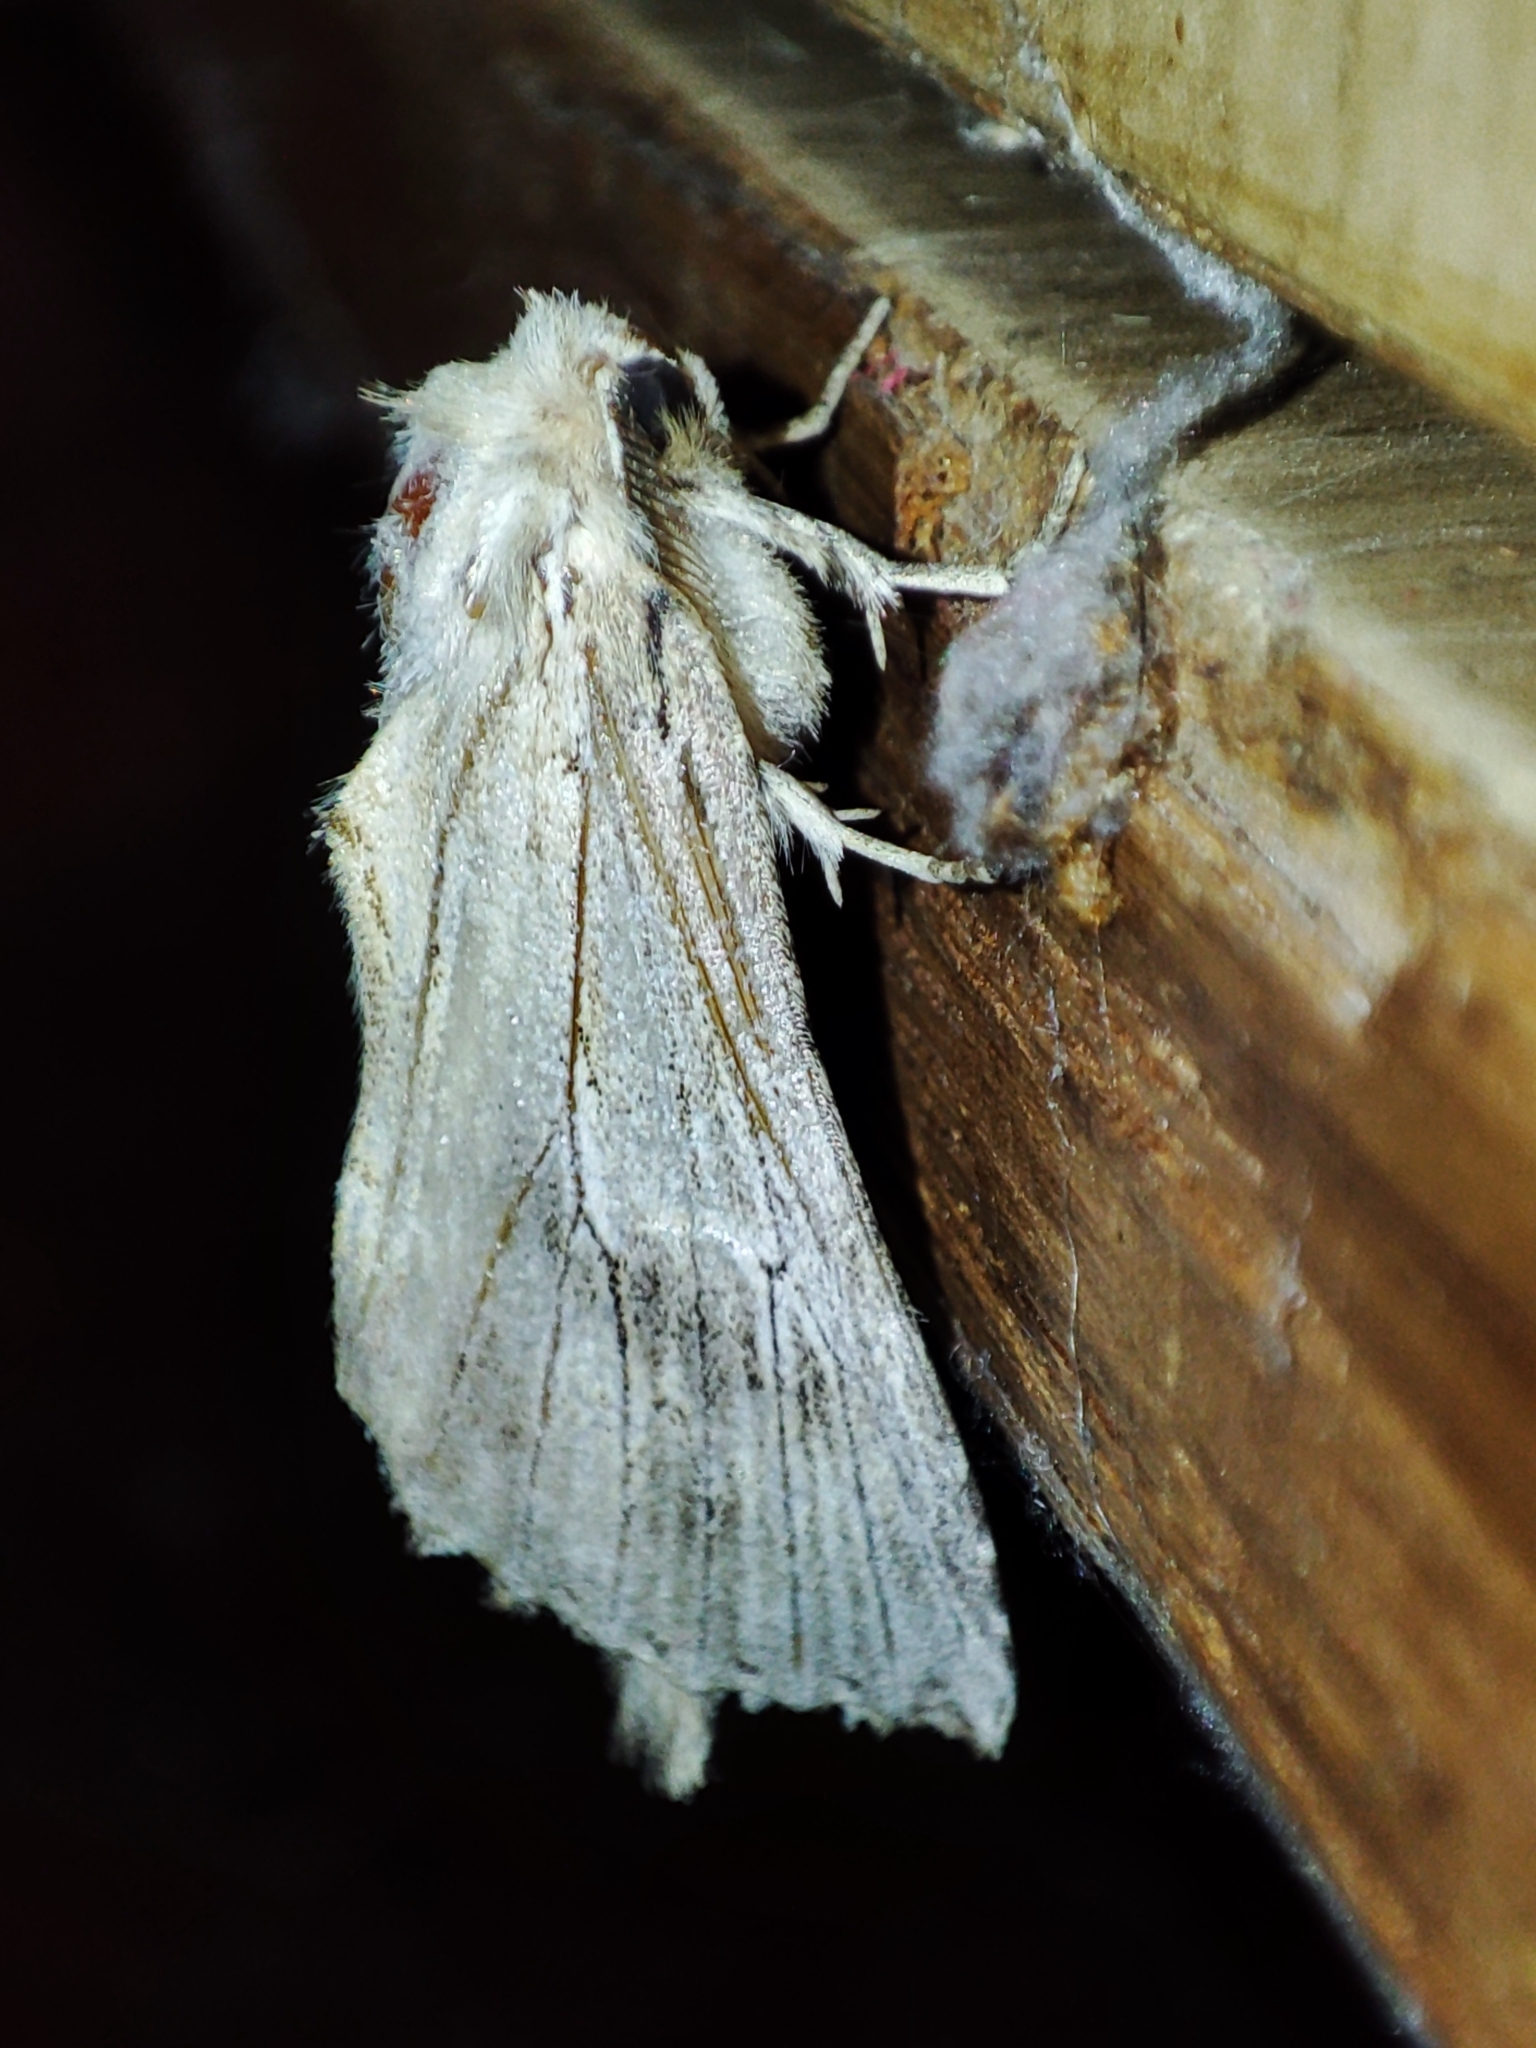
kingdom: Animalia
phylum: Arthropoda
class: Insecta
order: Lepidoptera
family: Notodontidae
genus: Pterostoma
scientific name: Pterostoma palpina
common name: Pale prominent
